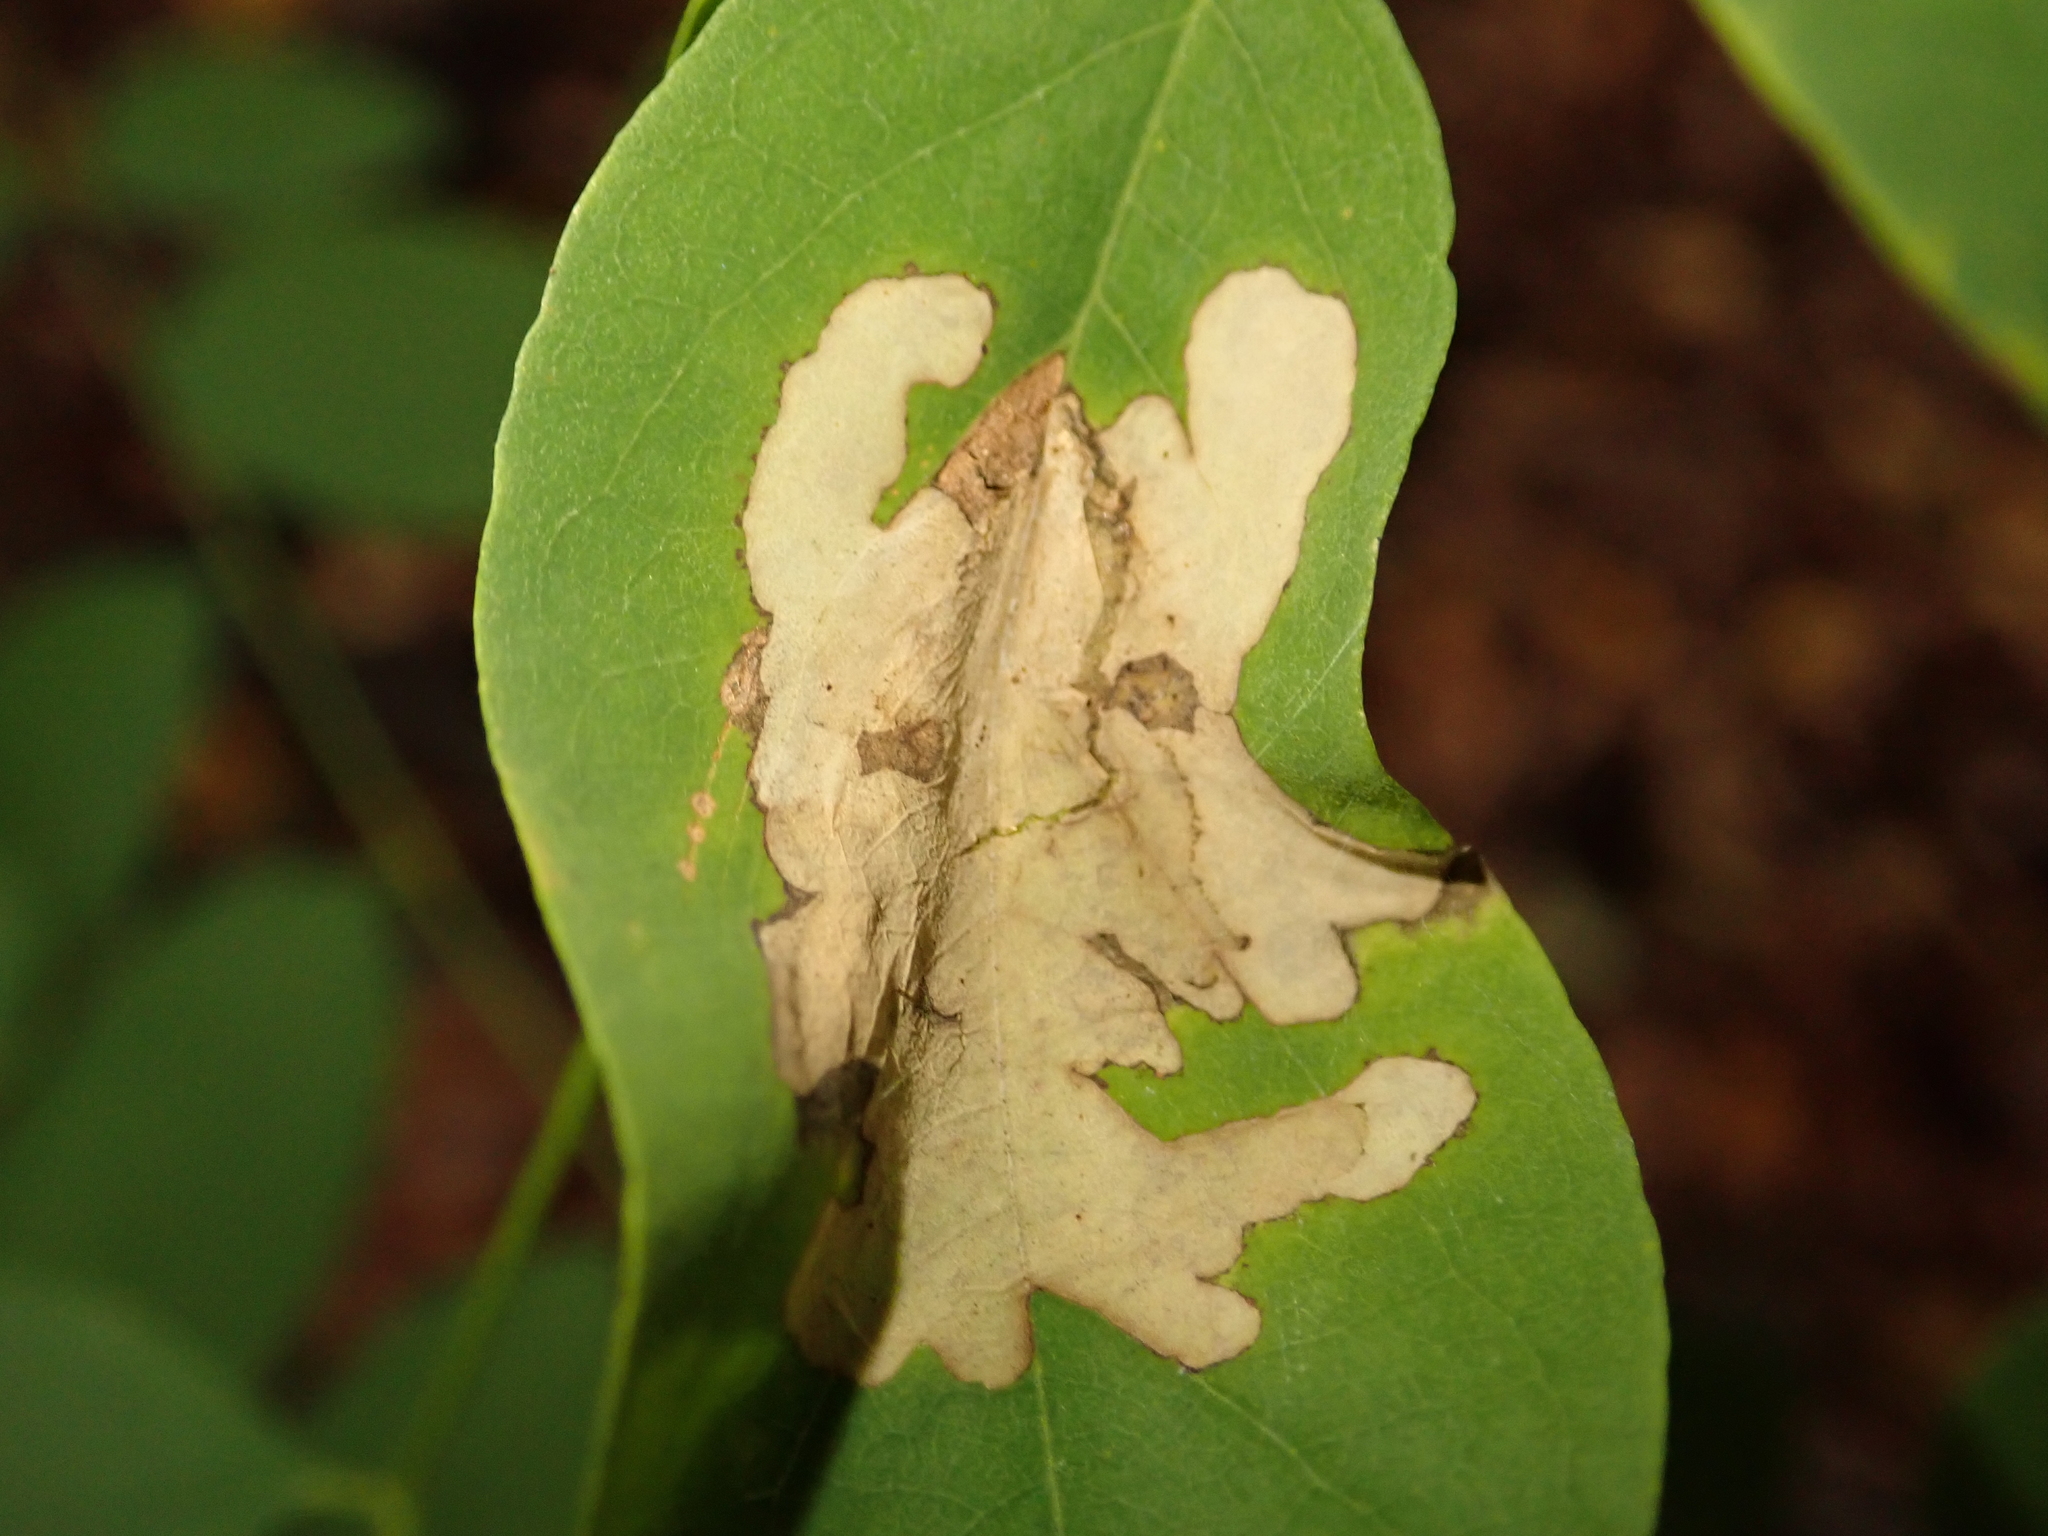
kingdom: Animalia
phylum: Arthropoda
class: Insecta
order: Lepidoptera
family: Gracillariidae
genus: Parectopa
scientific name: Parectopa robiniella
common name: Locust digitate leafminer
